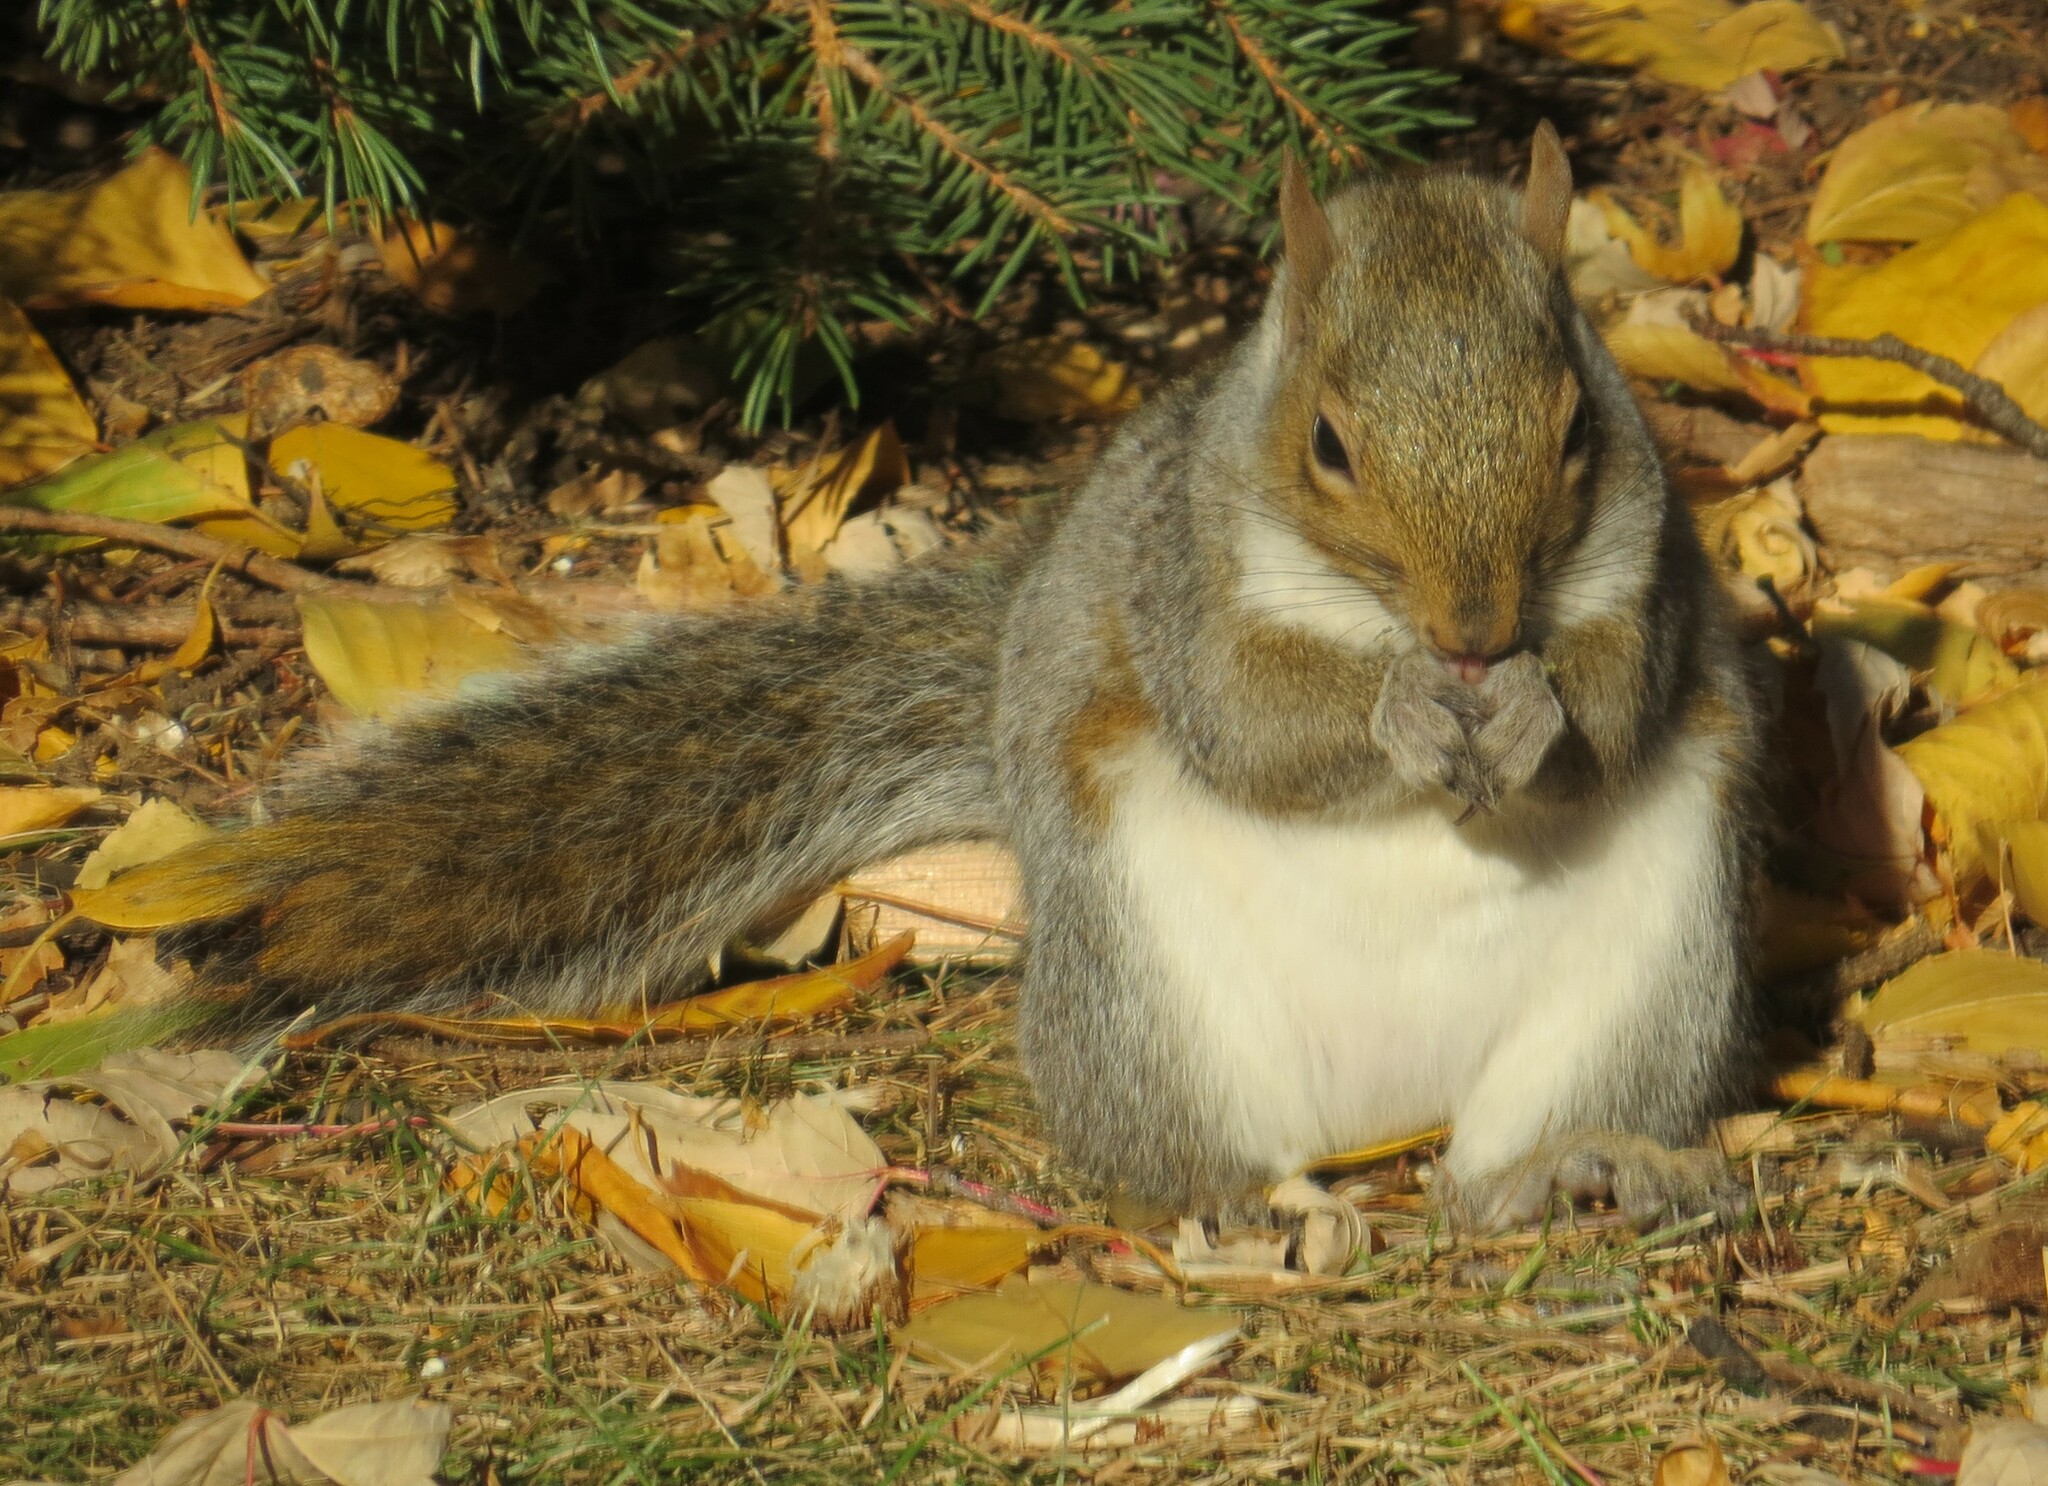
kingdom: Animalia
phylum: Chordata
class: Mammalia
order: Rodentia
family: Sciuridae
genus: Sciurus
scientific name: Sciurus carolinensis
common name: Eastern gray squirrel
